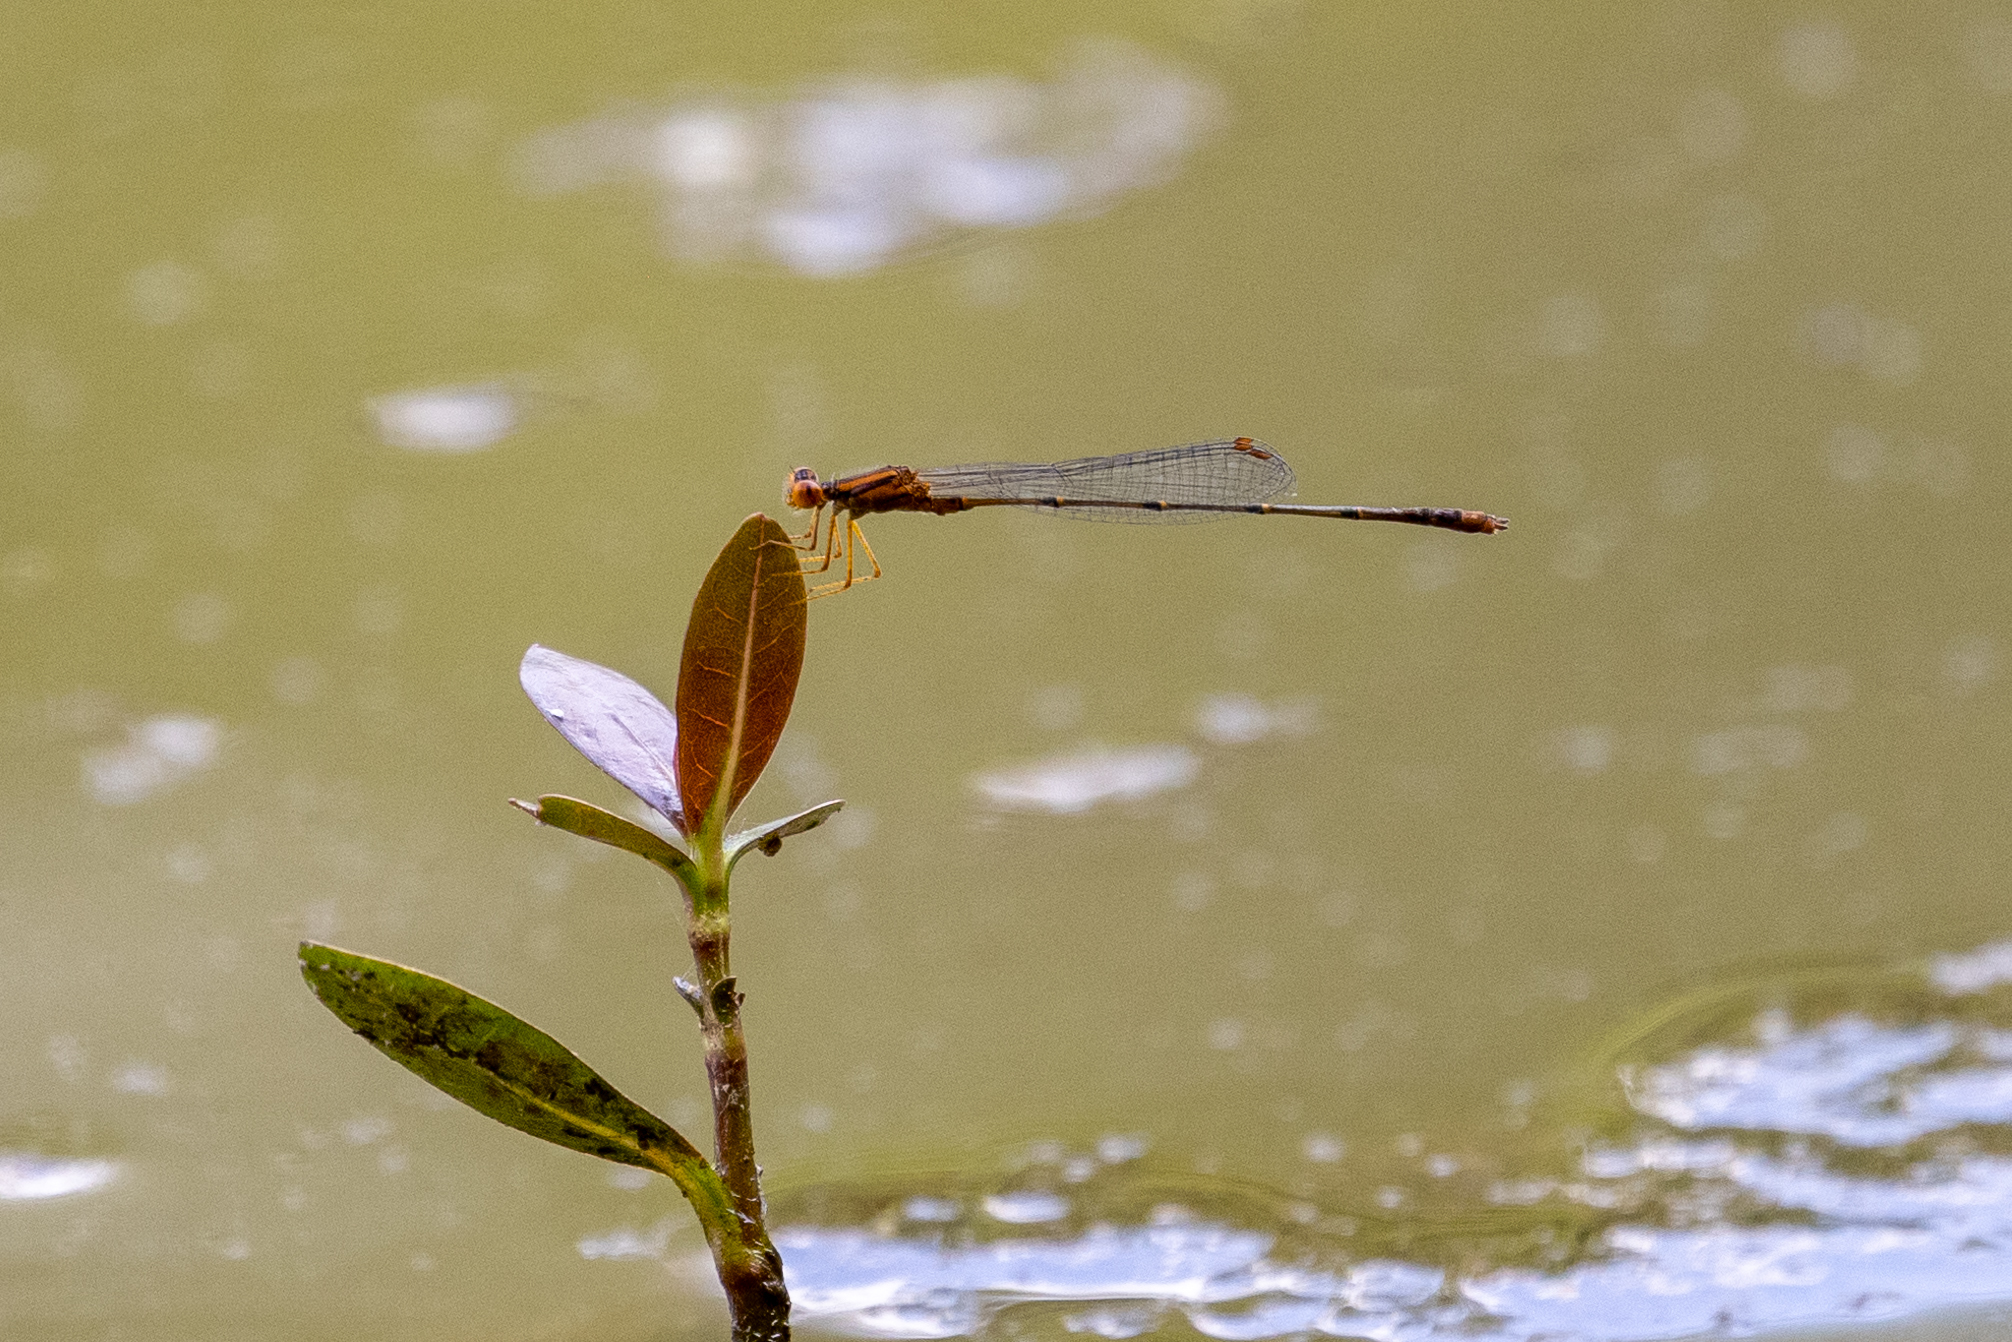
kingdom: Animalia
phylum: Arthropoda
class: Insecta
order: Odonata
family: Coenagrionidae
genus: Enallagma
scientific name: Enallagma signatum
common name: Orange bluet
